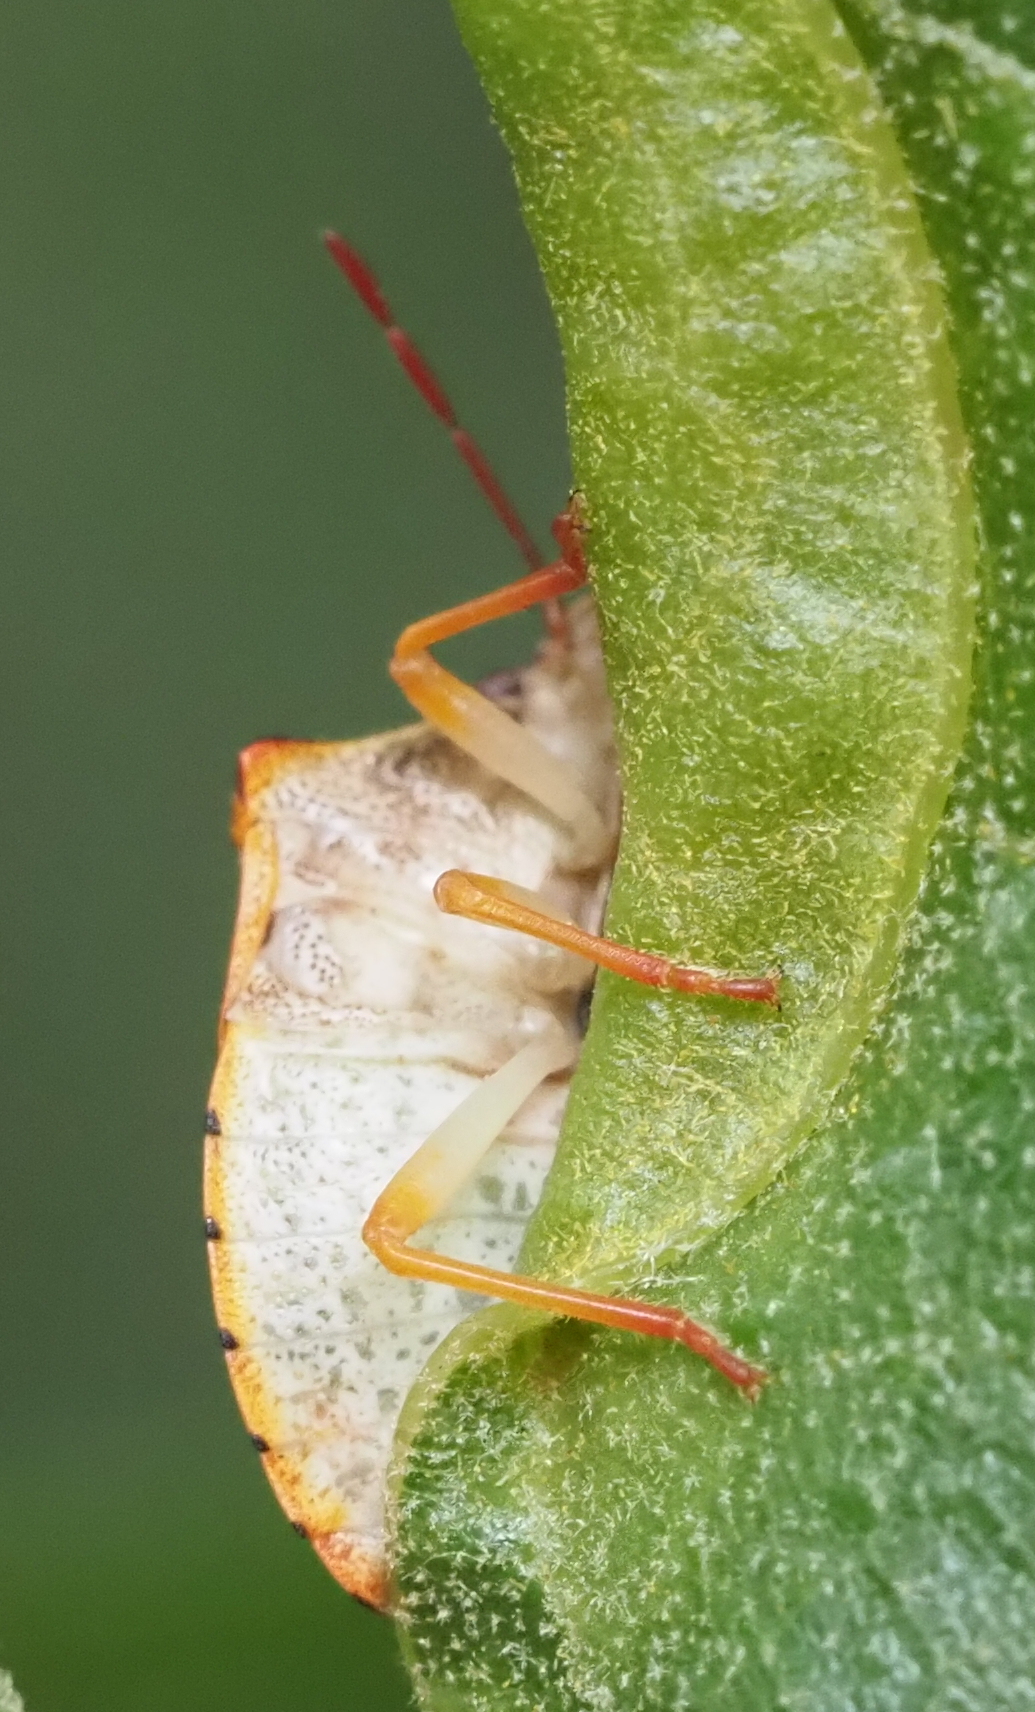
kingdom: Animalia
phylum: Arthropoda
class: Insecta
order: Hemiptera
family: Pentatomidae
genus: Dendrocoris
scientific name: Dendrocoris humeralis
